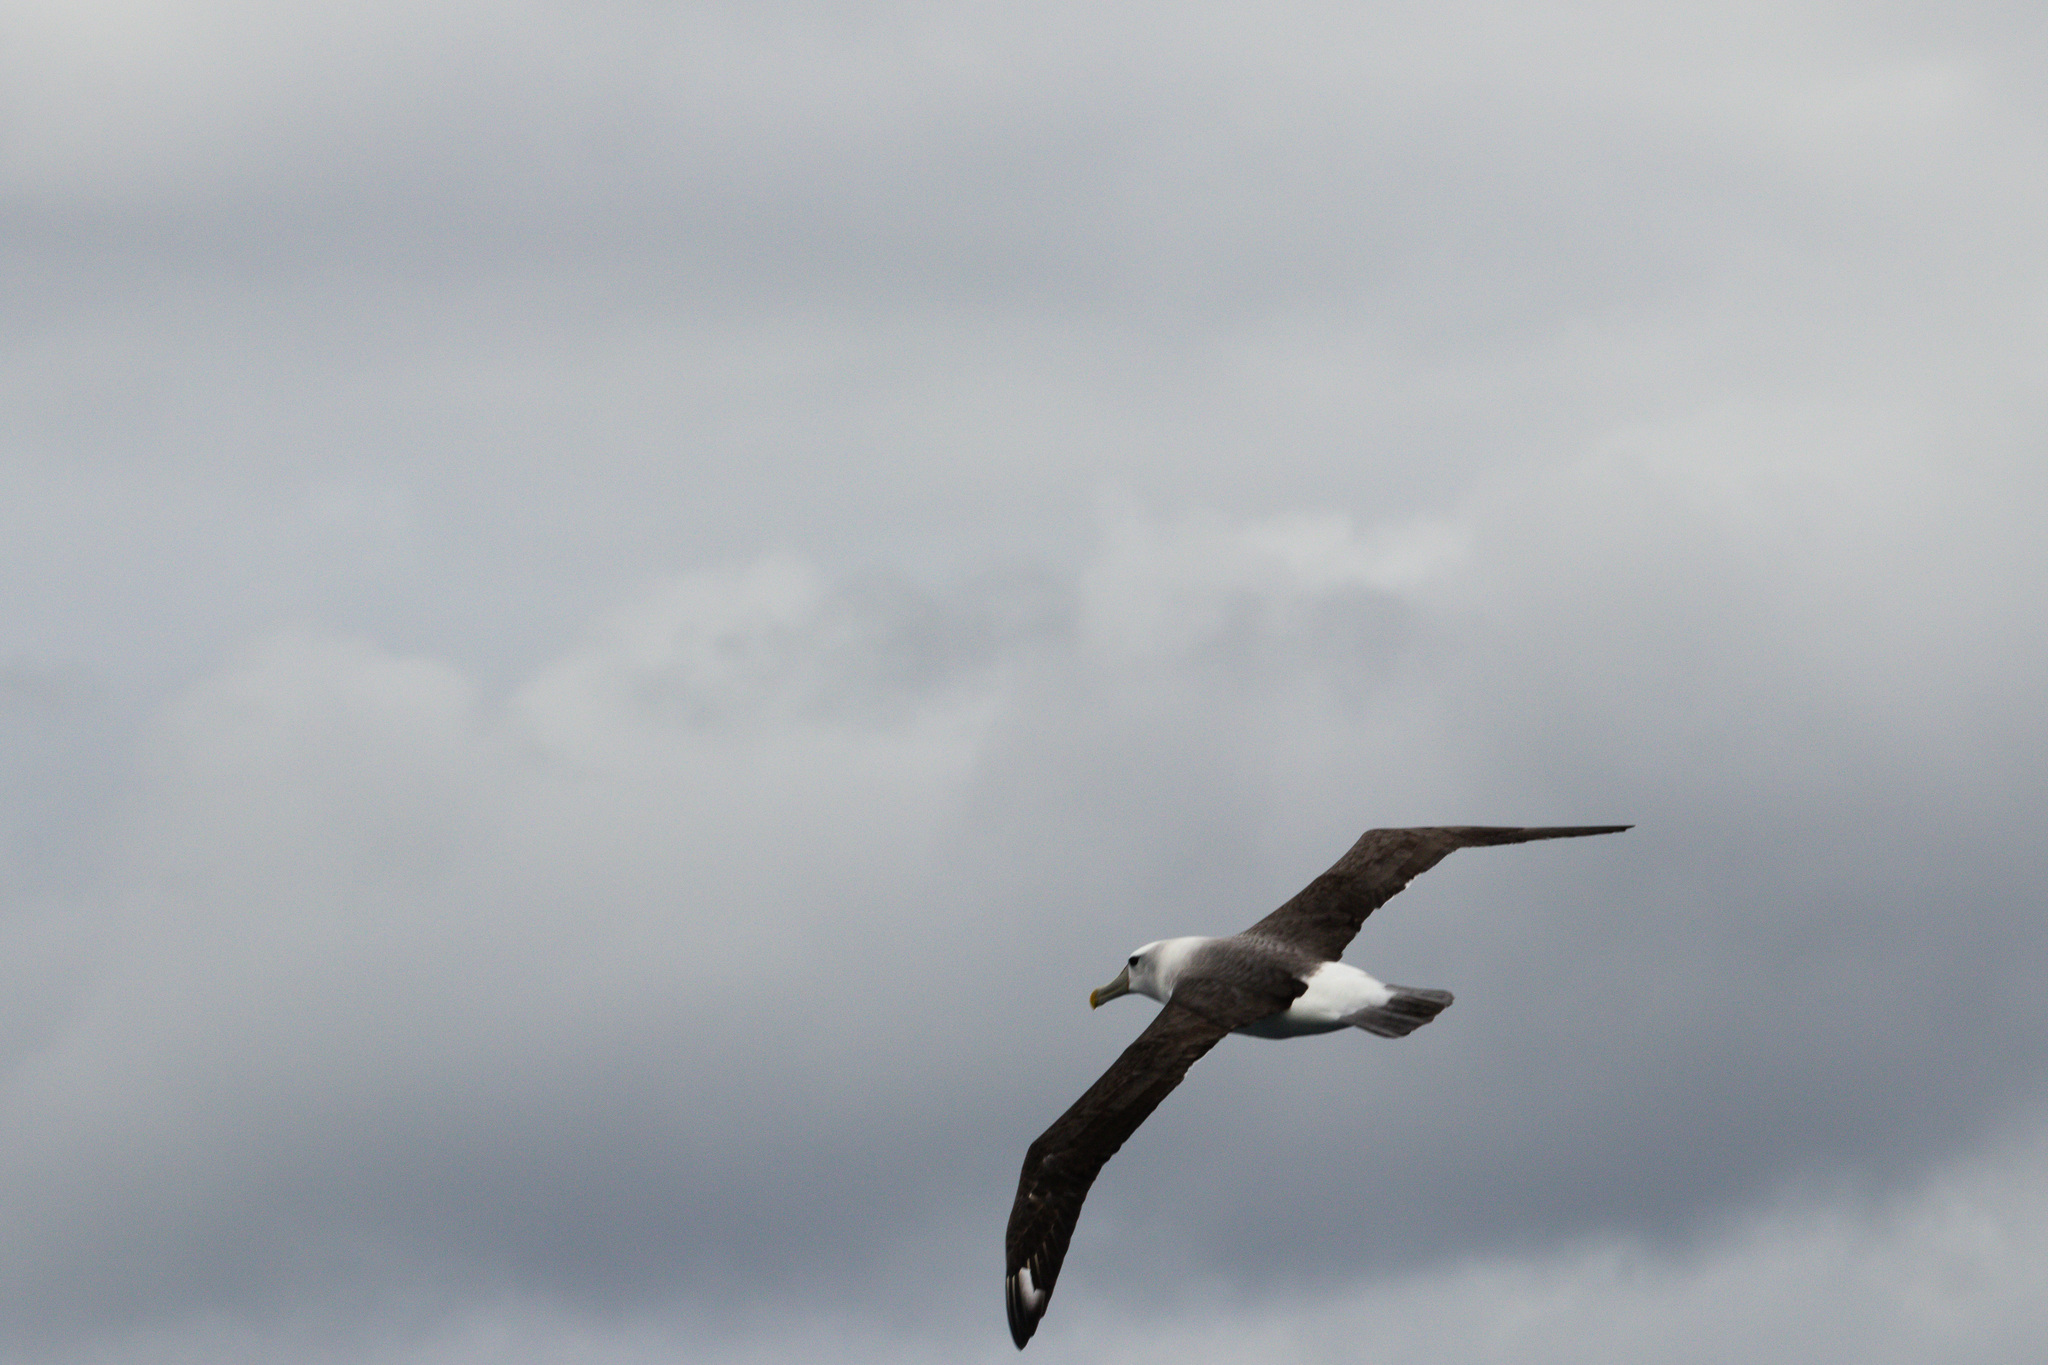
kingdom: Animalia
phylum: Chordata
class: Aves
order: Procellariiformes
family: Diomedeidae
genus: Thalassarche
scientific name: Thalassarche cauta
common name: Shy albatross
